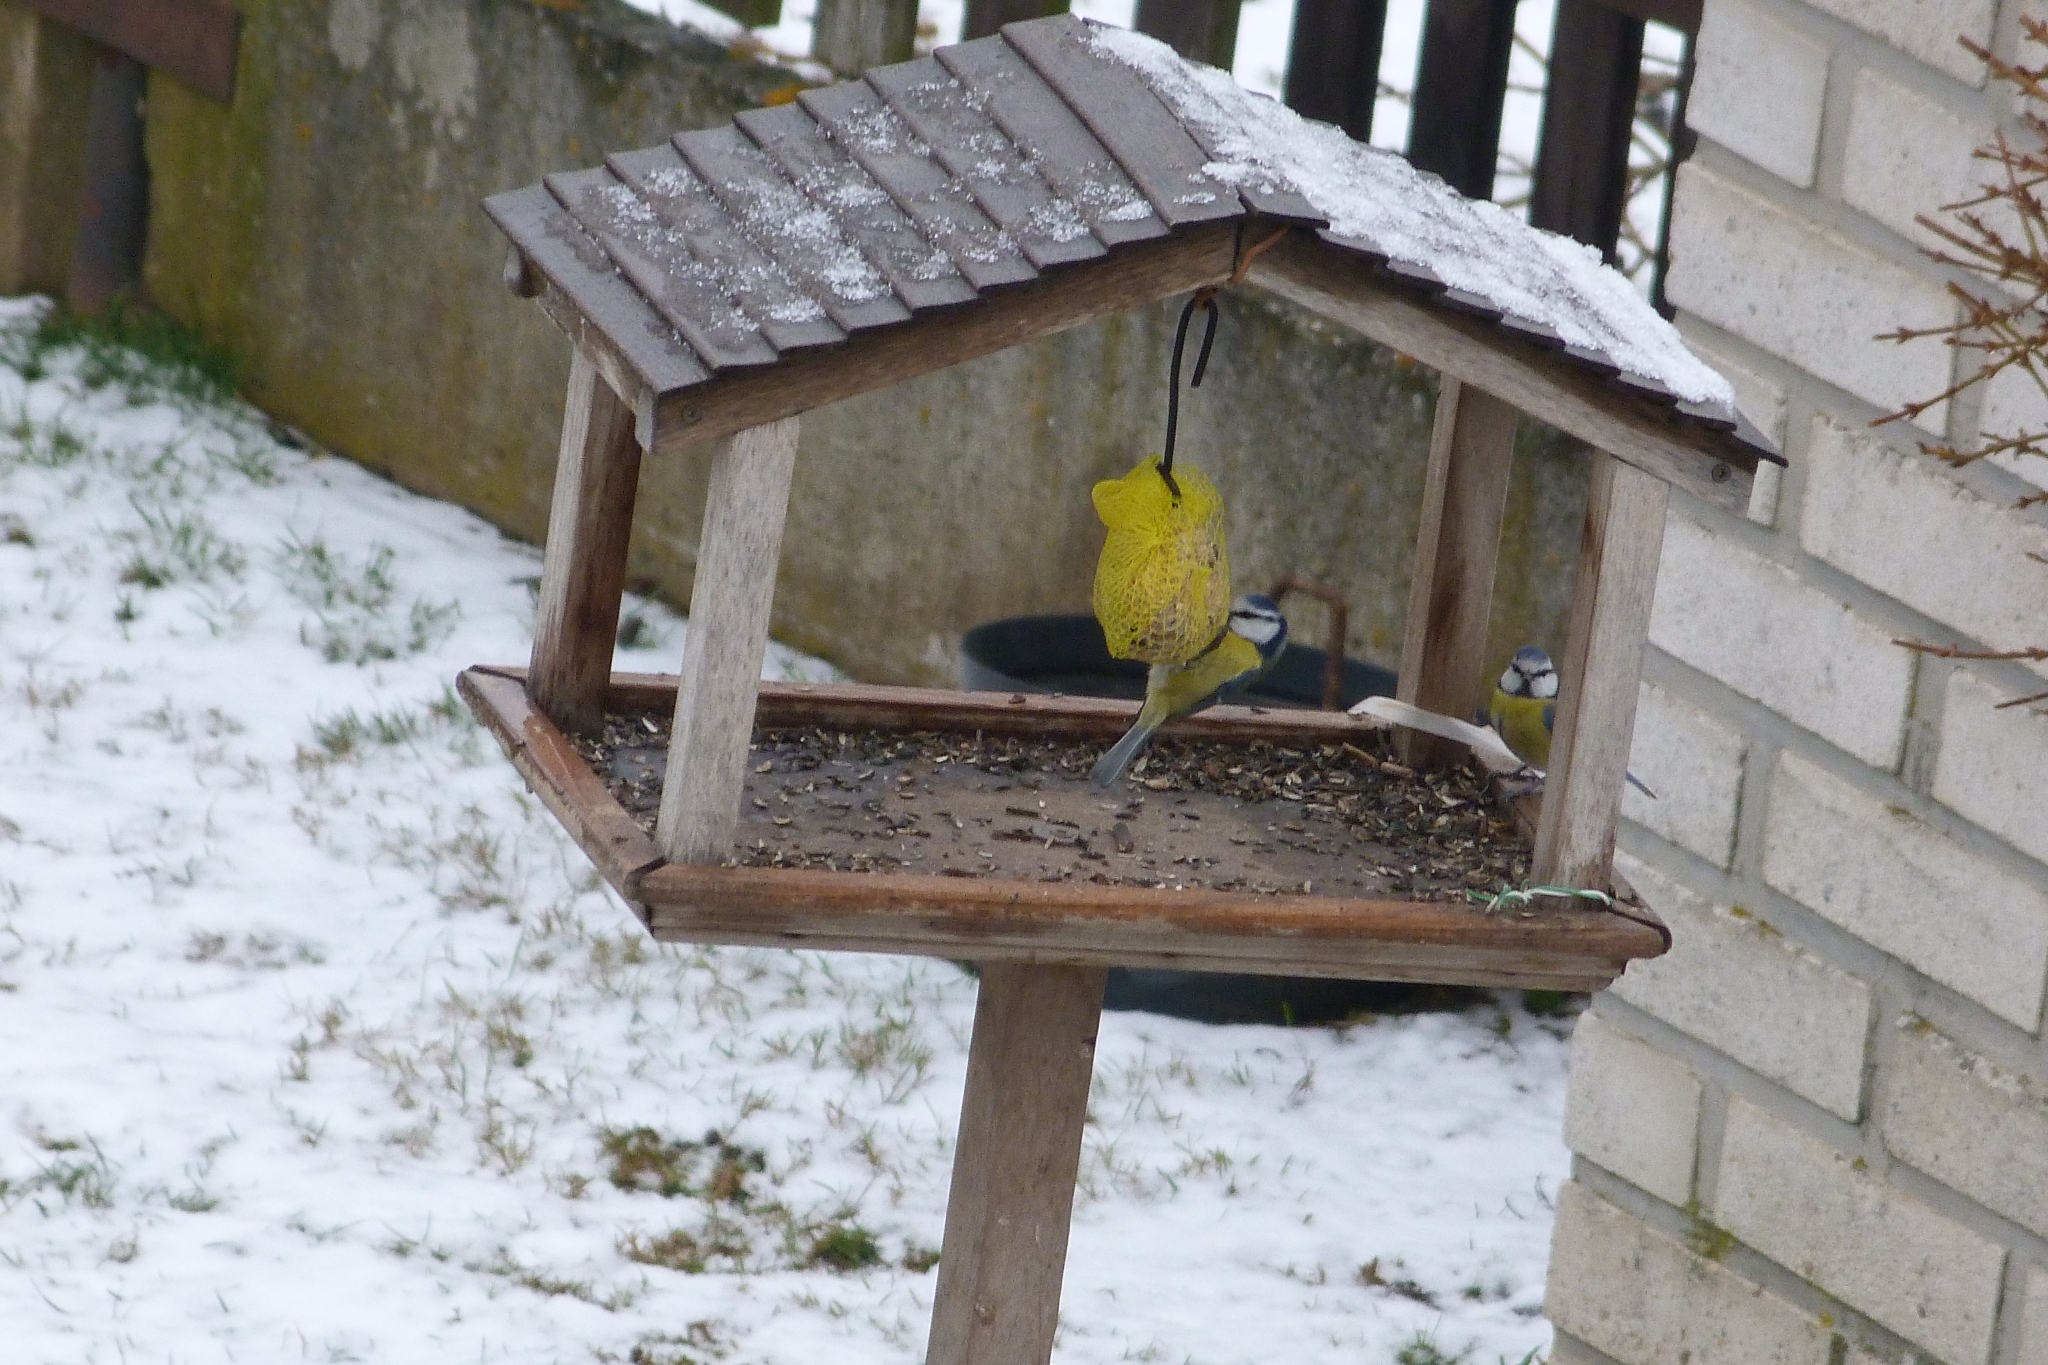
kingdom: Animalia
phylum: Chordata
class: Aves
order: Passeriformes
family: Paridae
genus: Cyanistes
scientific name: Cyanistes caeruleus
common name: Eurasian blue tit
